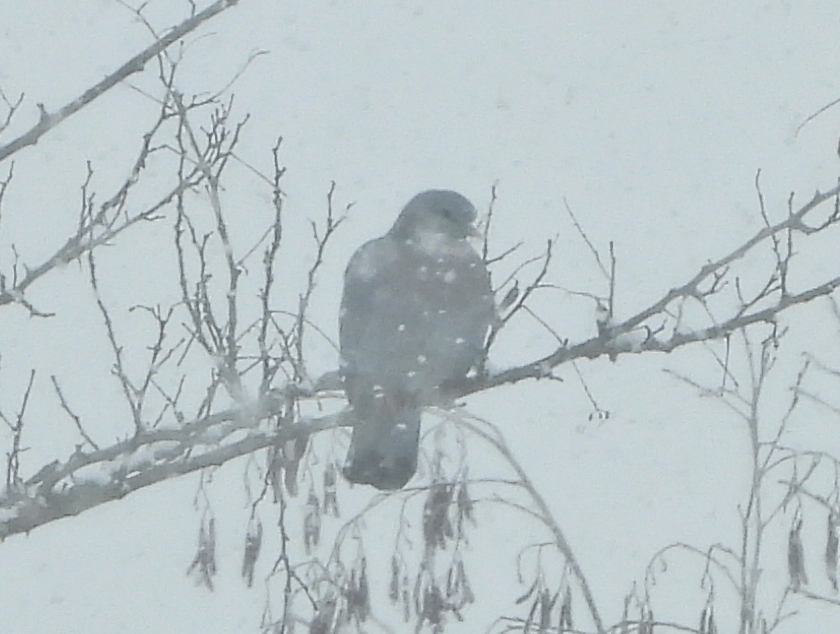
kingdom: Animalia
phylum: Chordata
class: Aves
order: Columbiformes
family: Columbidae
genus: Columba
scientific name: Columba oenas
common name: Stock dove
